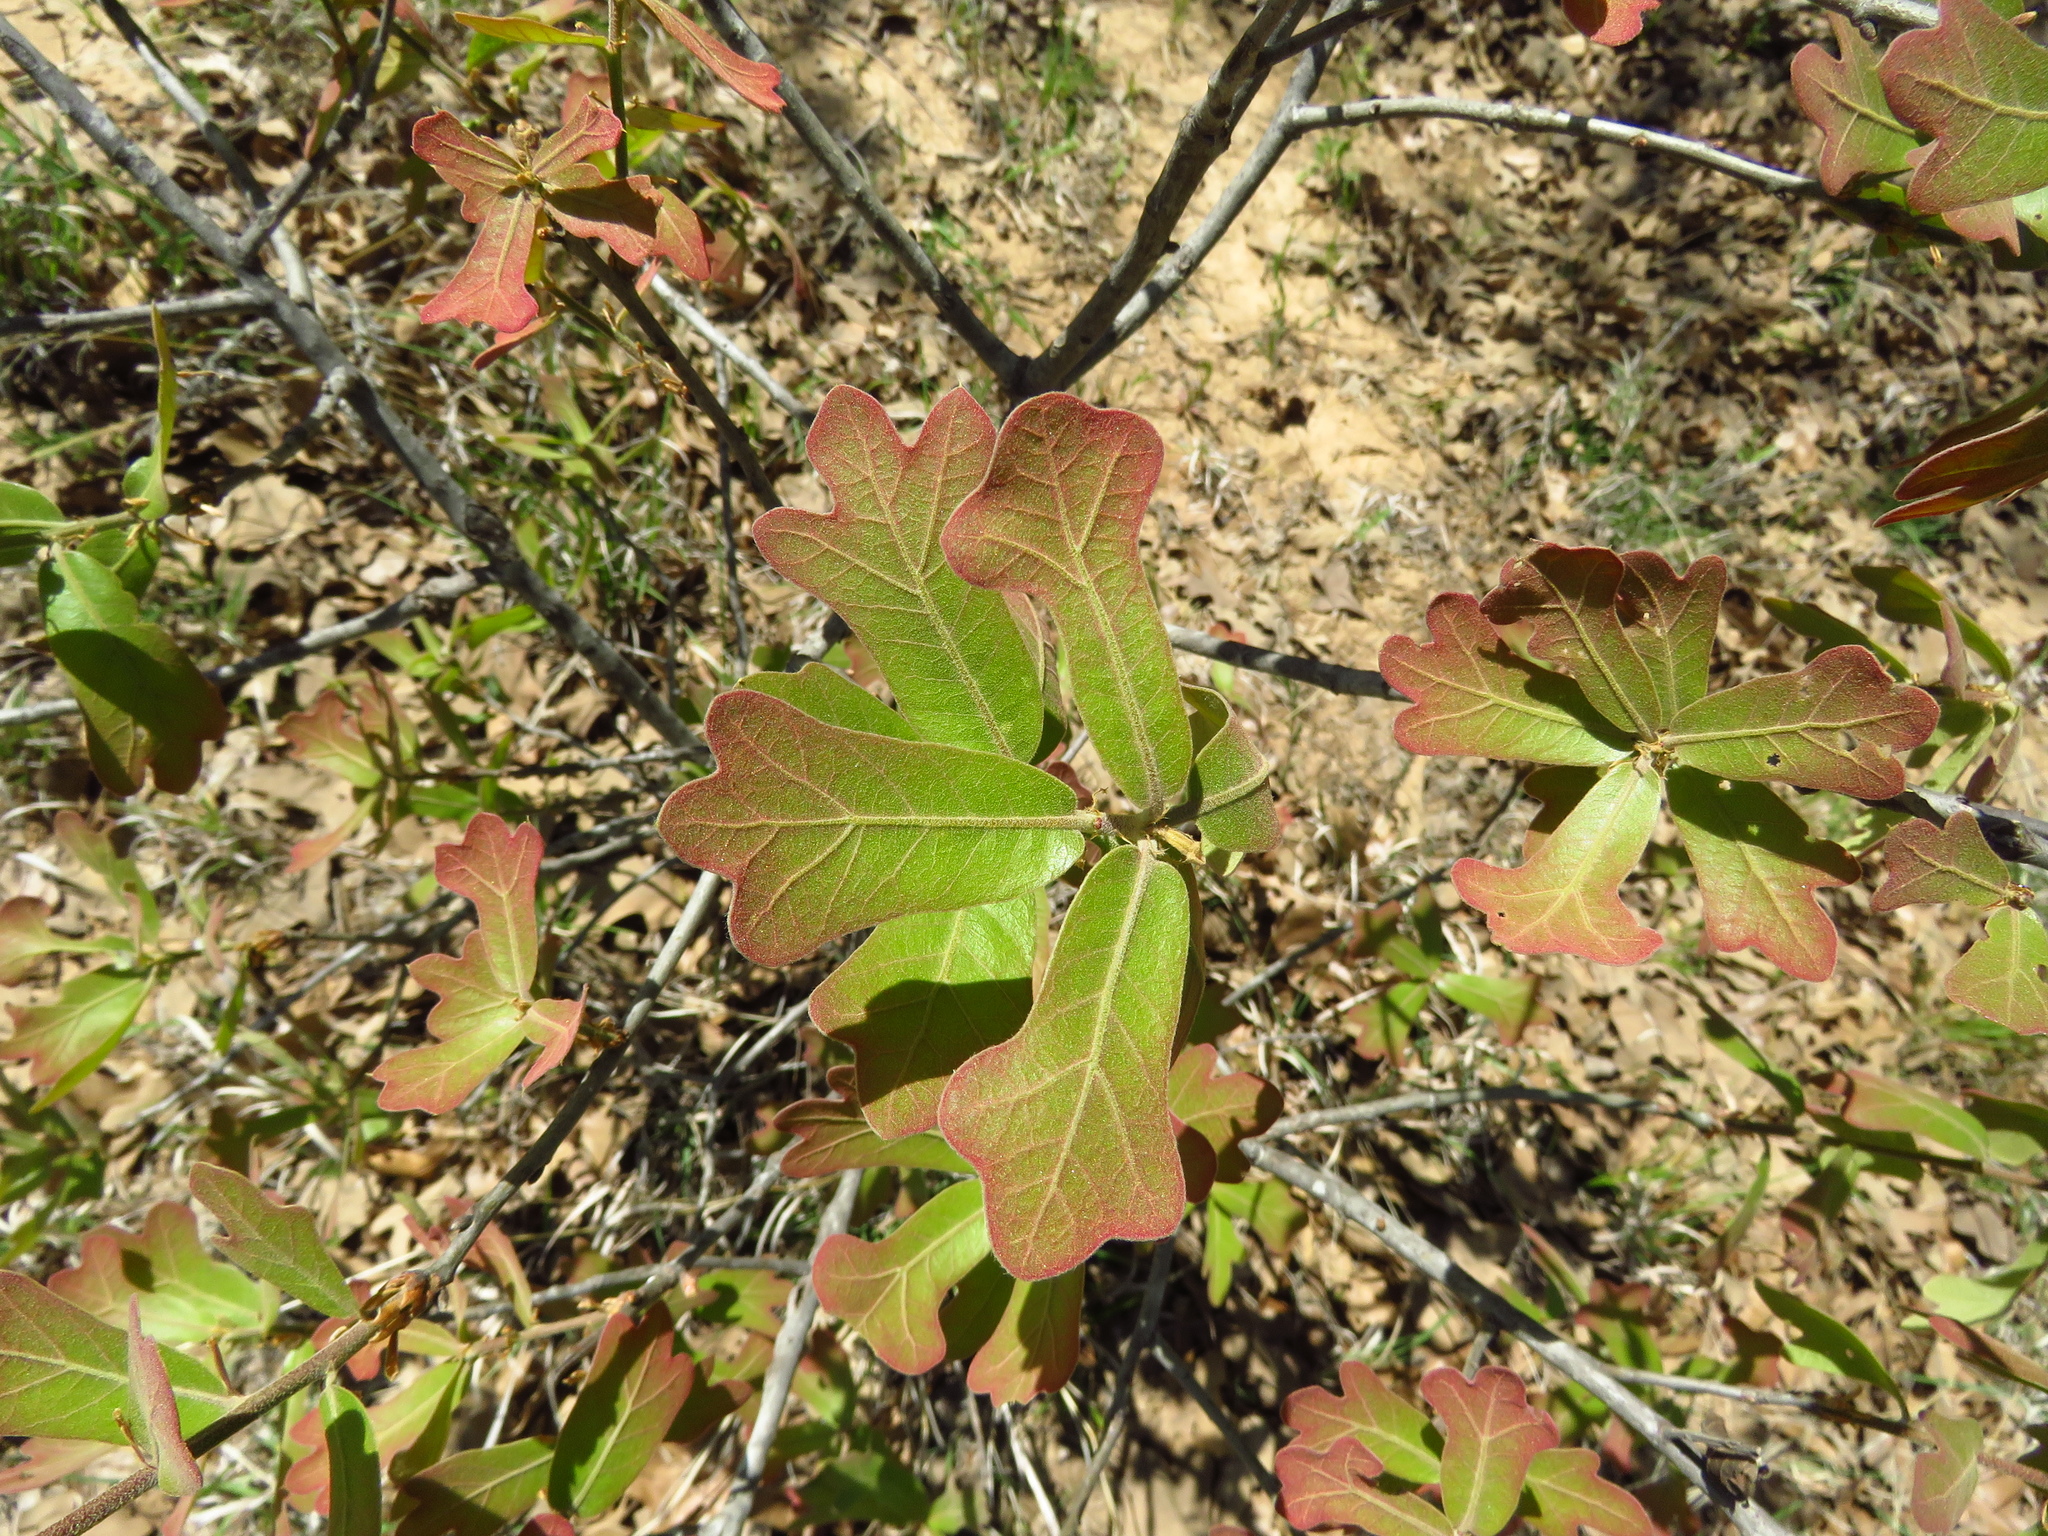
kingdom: Plantae
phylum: Tracheophyta
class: Magnoliopsida
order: Fagales
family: Fagaceae
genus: Quercus
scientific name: Quercus marilandica
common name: Blackjack oak
